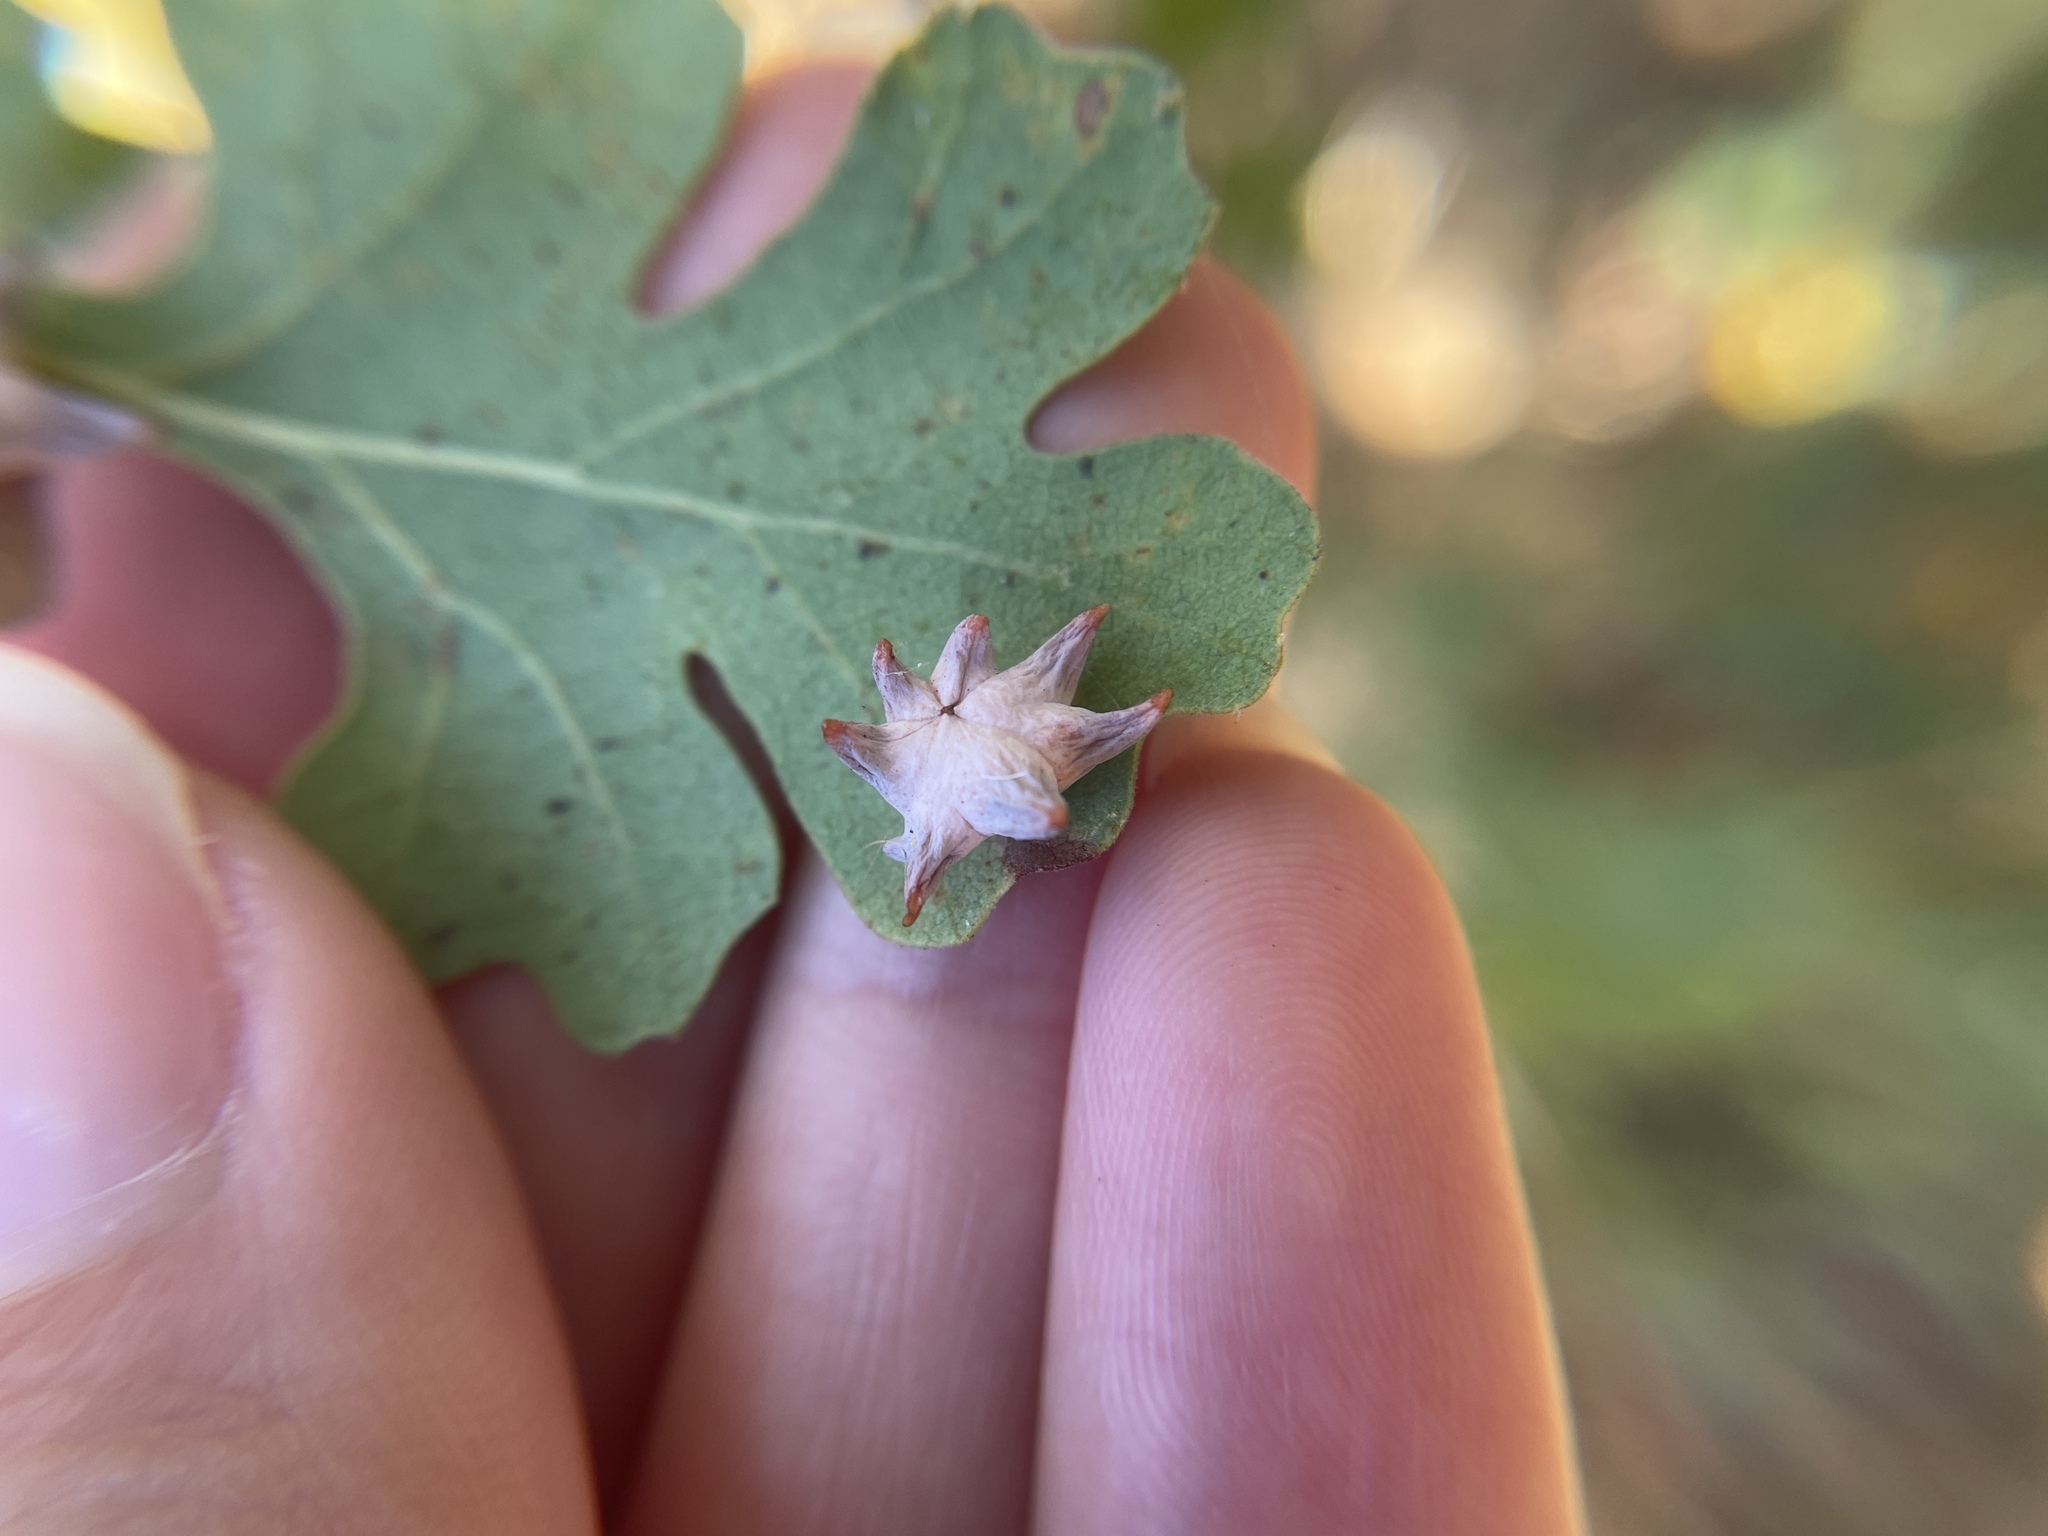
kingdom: Animalia
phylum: Arthropoda
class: Insecta
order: Hymenoptera
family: Cynipidae
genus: Cynips
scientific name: Cynips douglasi
